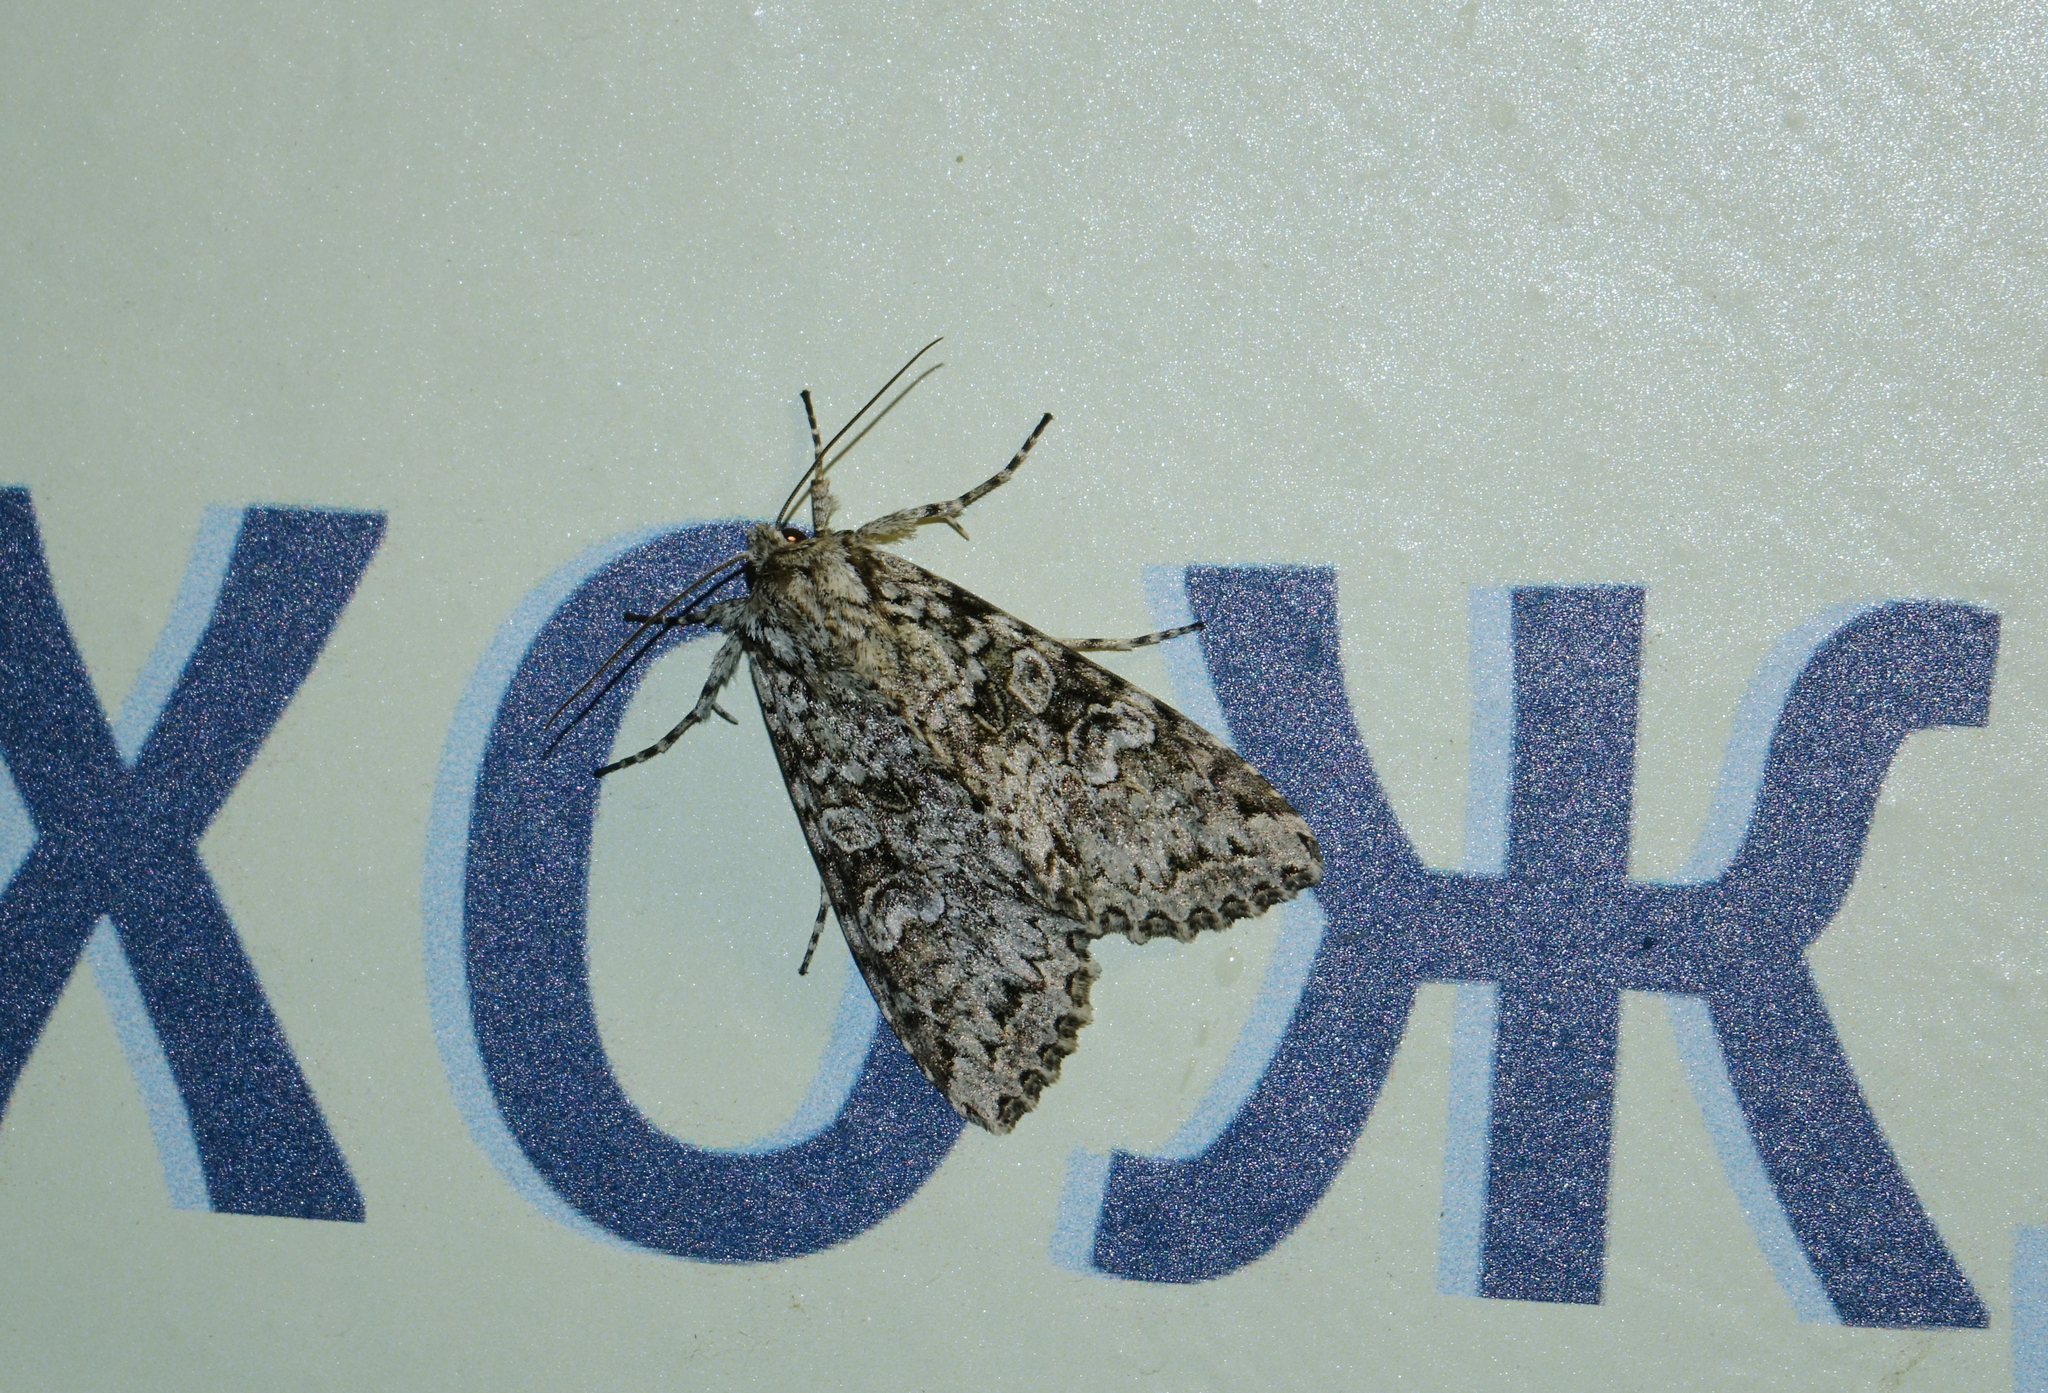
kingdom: Animalia
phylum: Arthropoda
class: Insecta
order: Lepidoptera
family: Noctuidae
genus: Polia
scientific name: Polia nebulosa
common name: Grey arches
